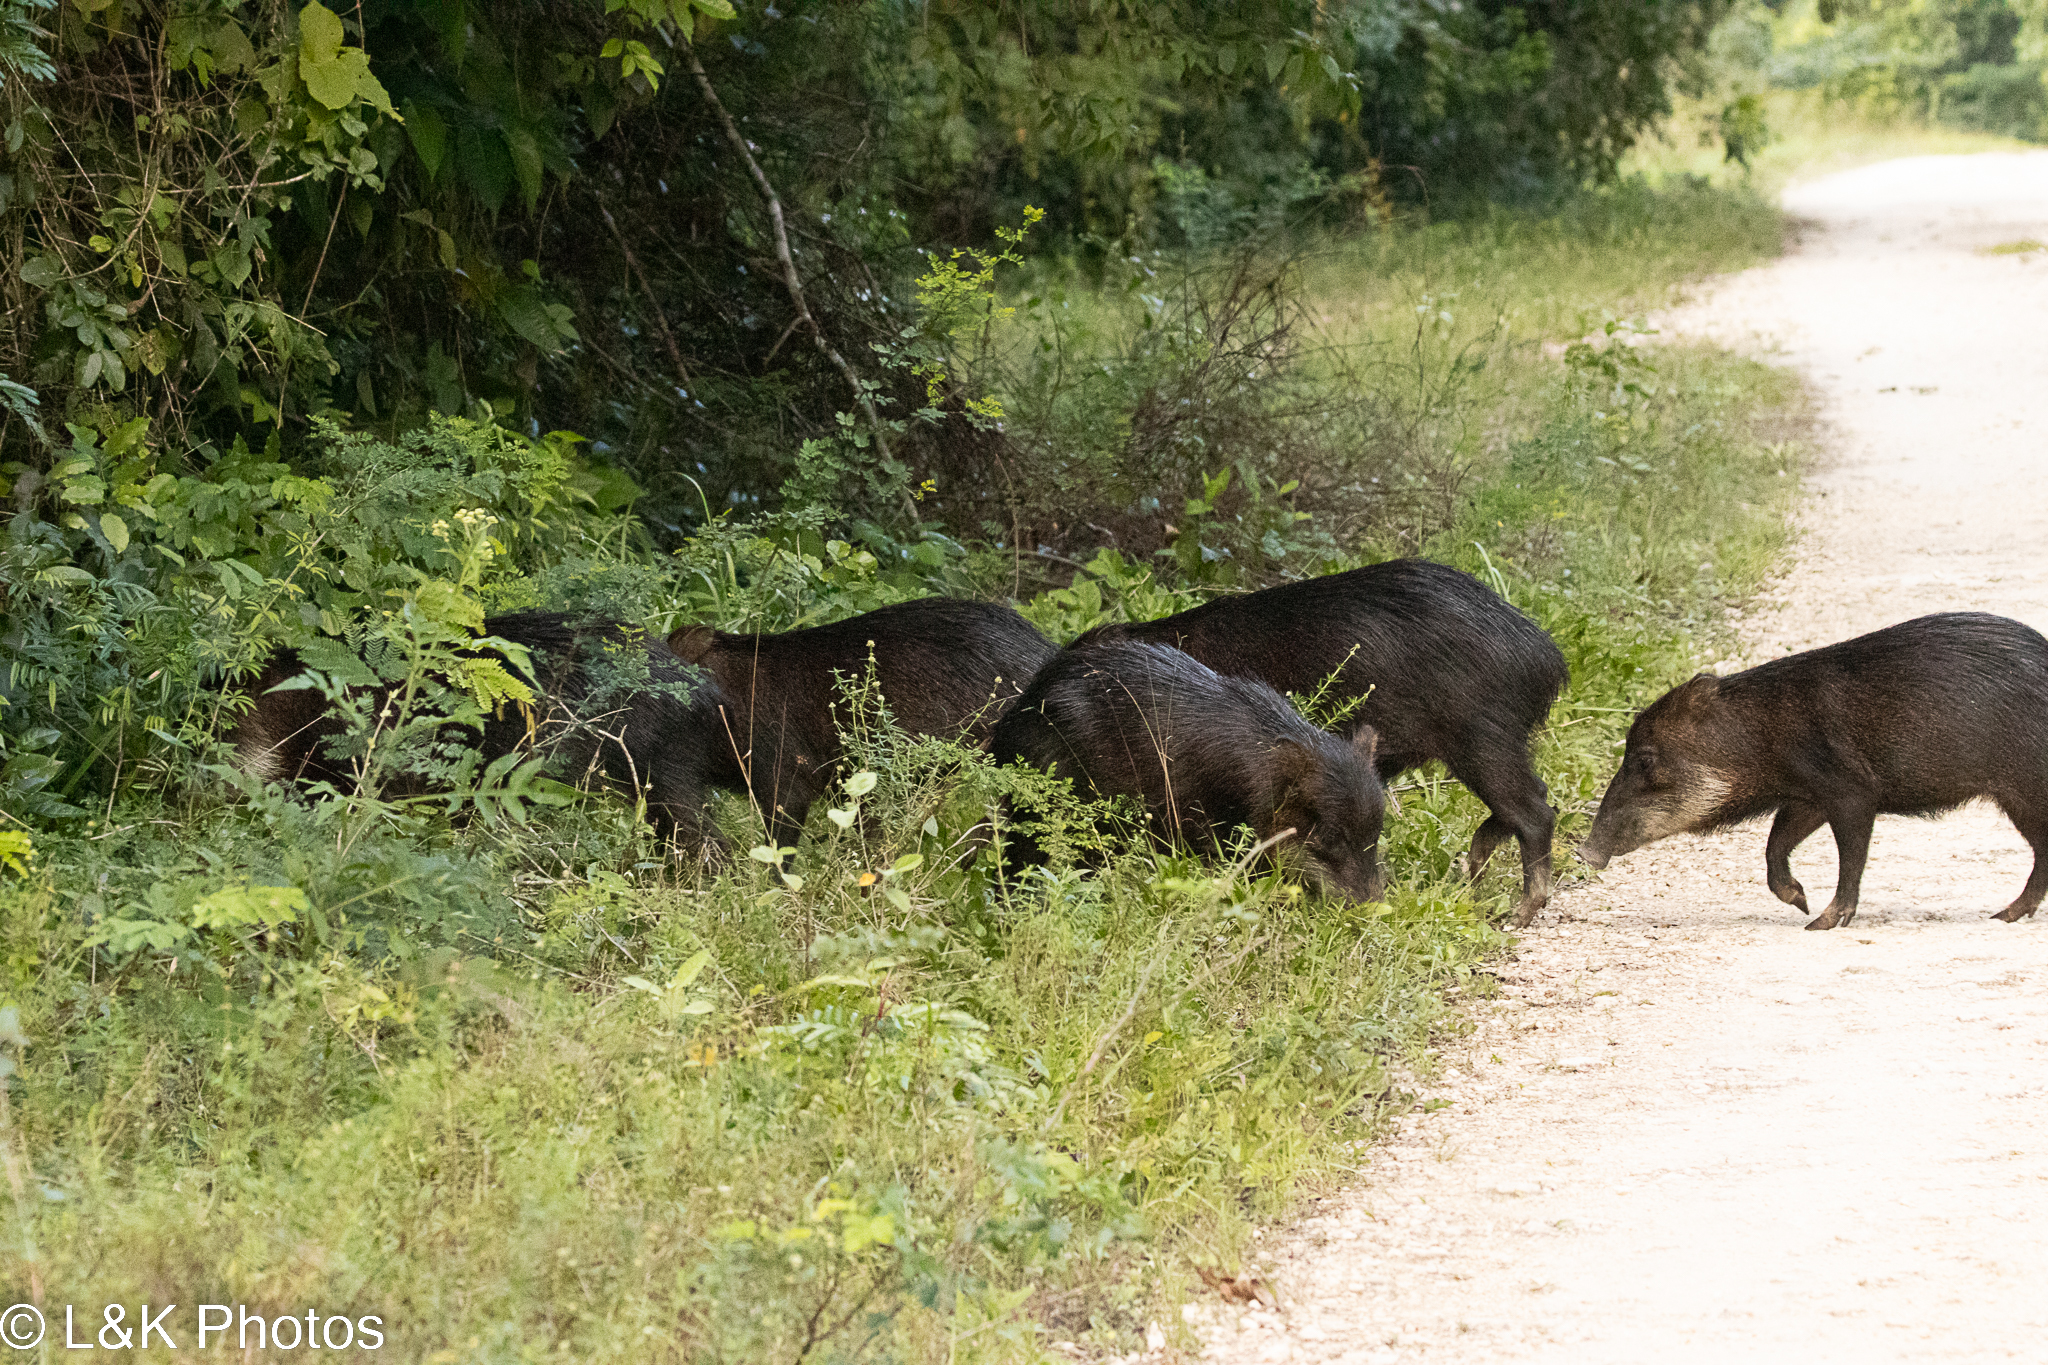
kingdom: Animalia
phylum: Chordata
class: Mammalia
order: Artiodactyla
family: Tayassuidae
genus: Tayassu
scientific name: Tayassu pecari
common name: White-lipped peccary
